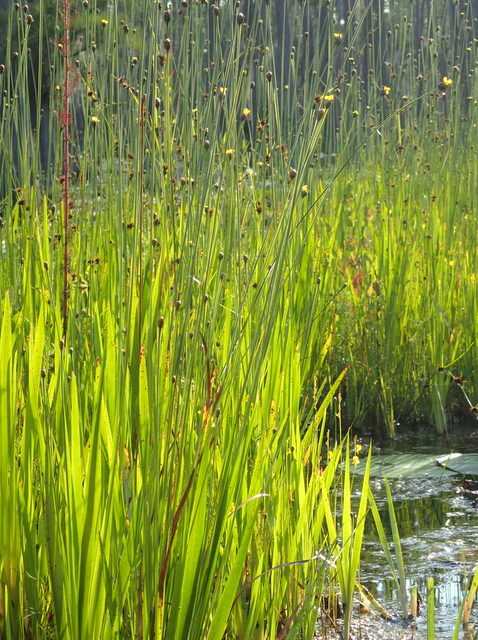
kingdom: Plantae
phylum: Tracheophyta
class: Liliopsida
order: Poales
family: Xyridaceae
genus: Xyris
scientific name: Xyris difformis
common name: Bog yellow-eyed-grass
